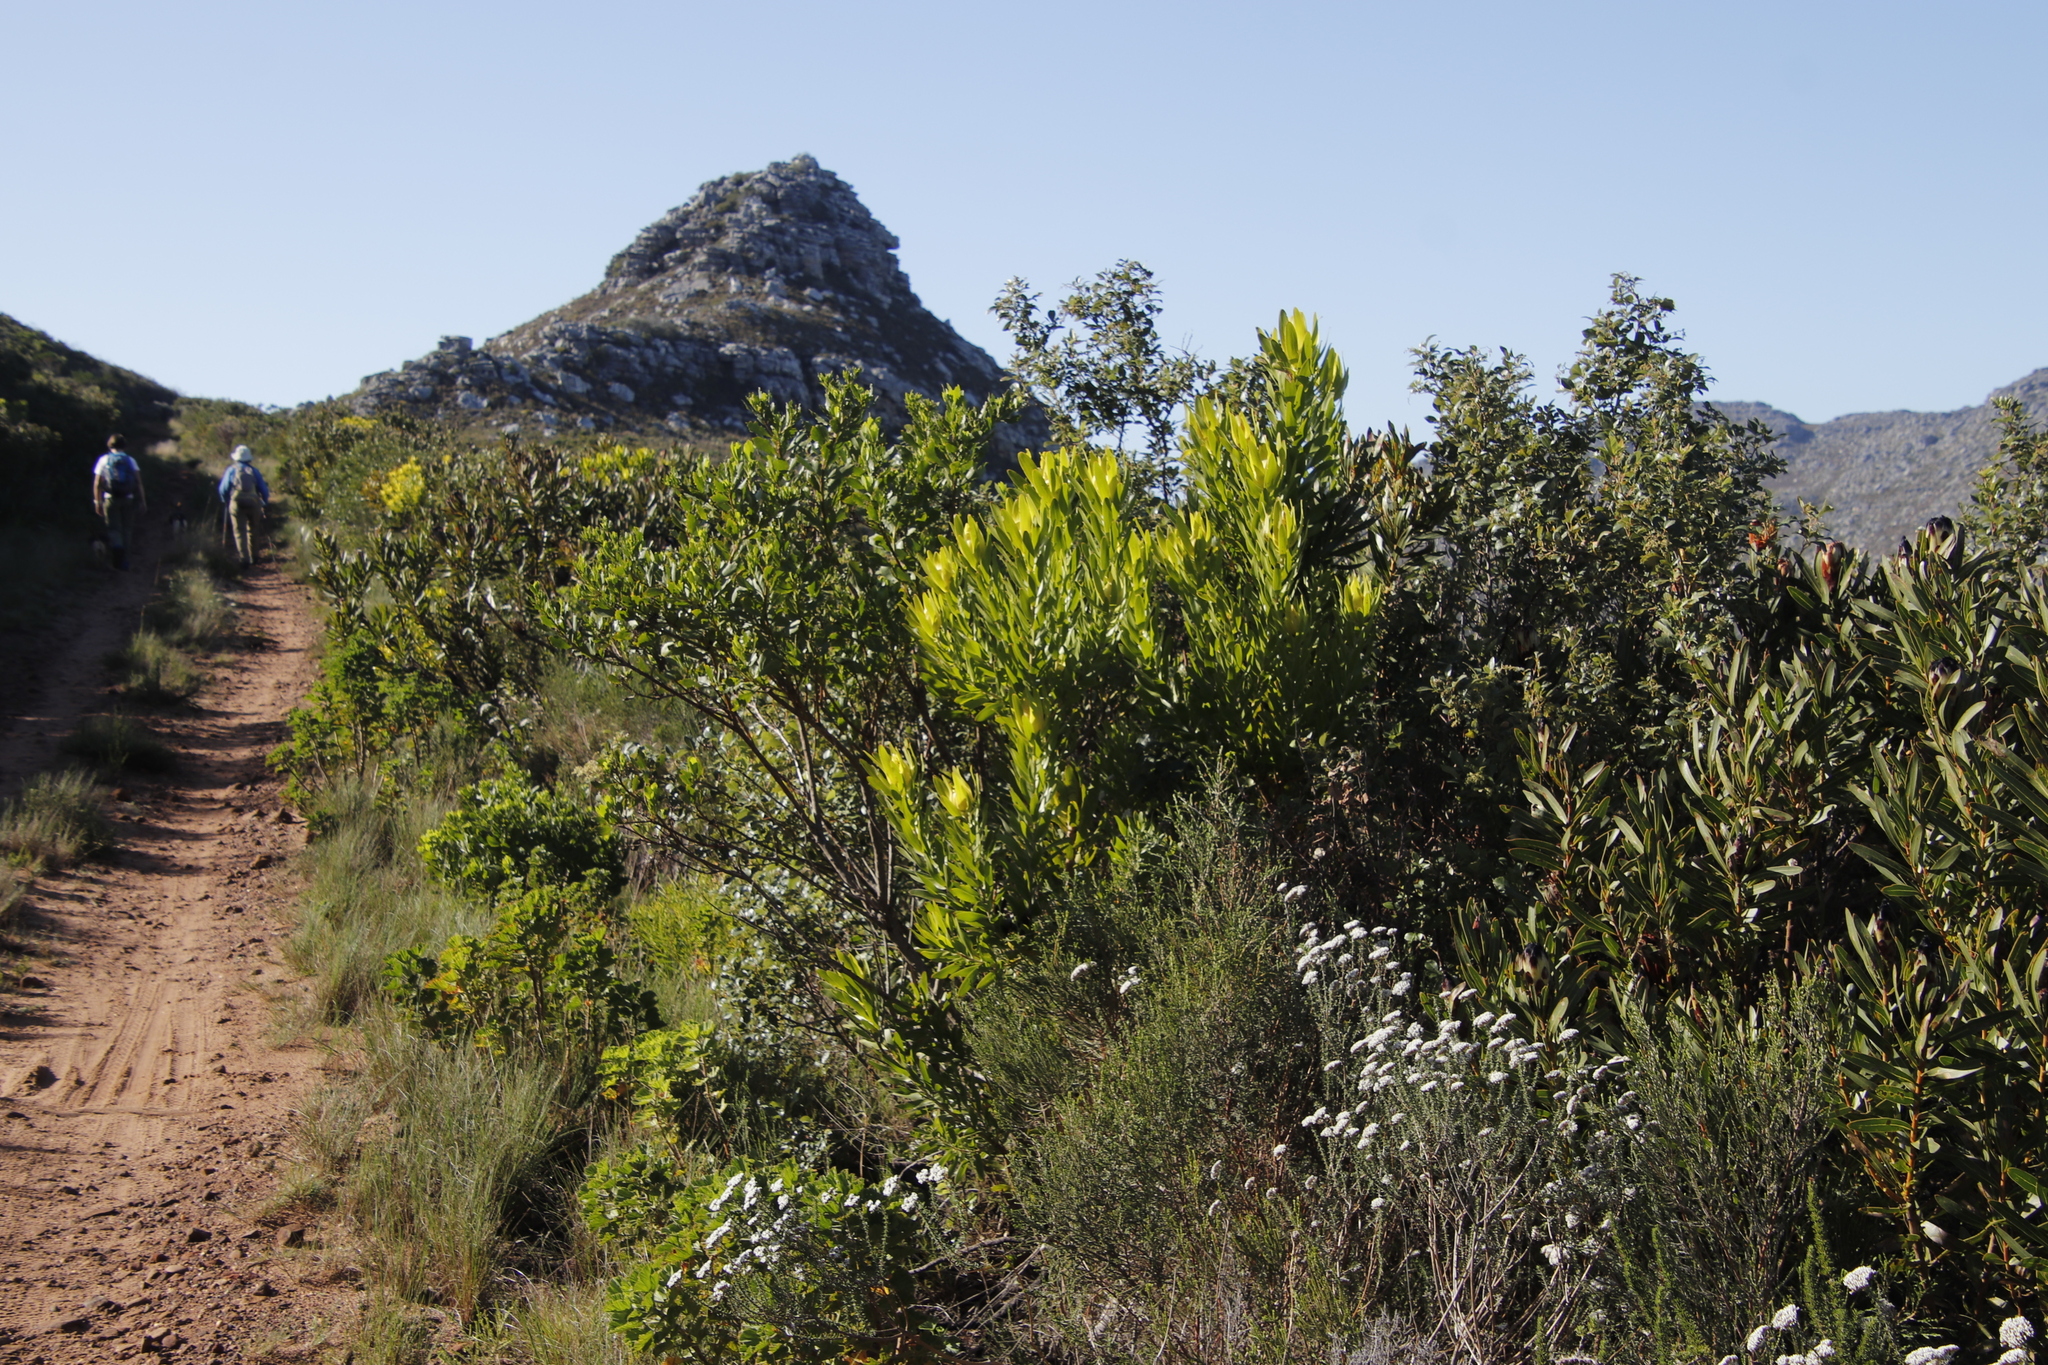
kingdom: Plantae
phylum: Tracheophyta
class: Magnoliopsida
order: Proteales
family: Proteaceae
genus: Leucadendron
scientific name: Leucadendron laureolum
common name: Golden sunshinebush
